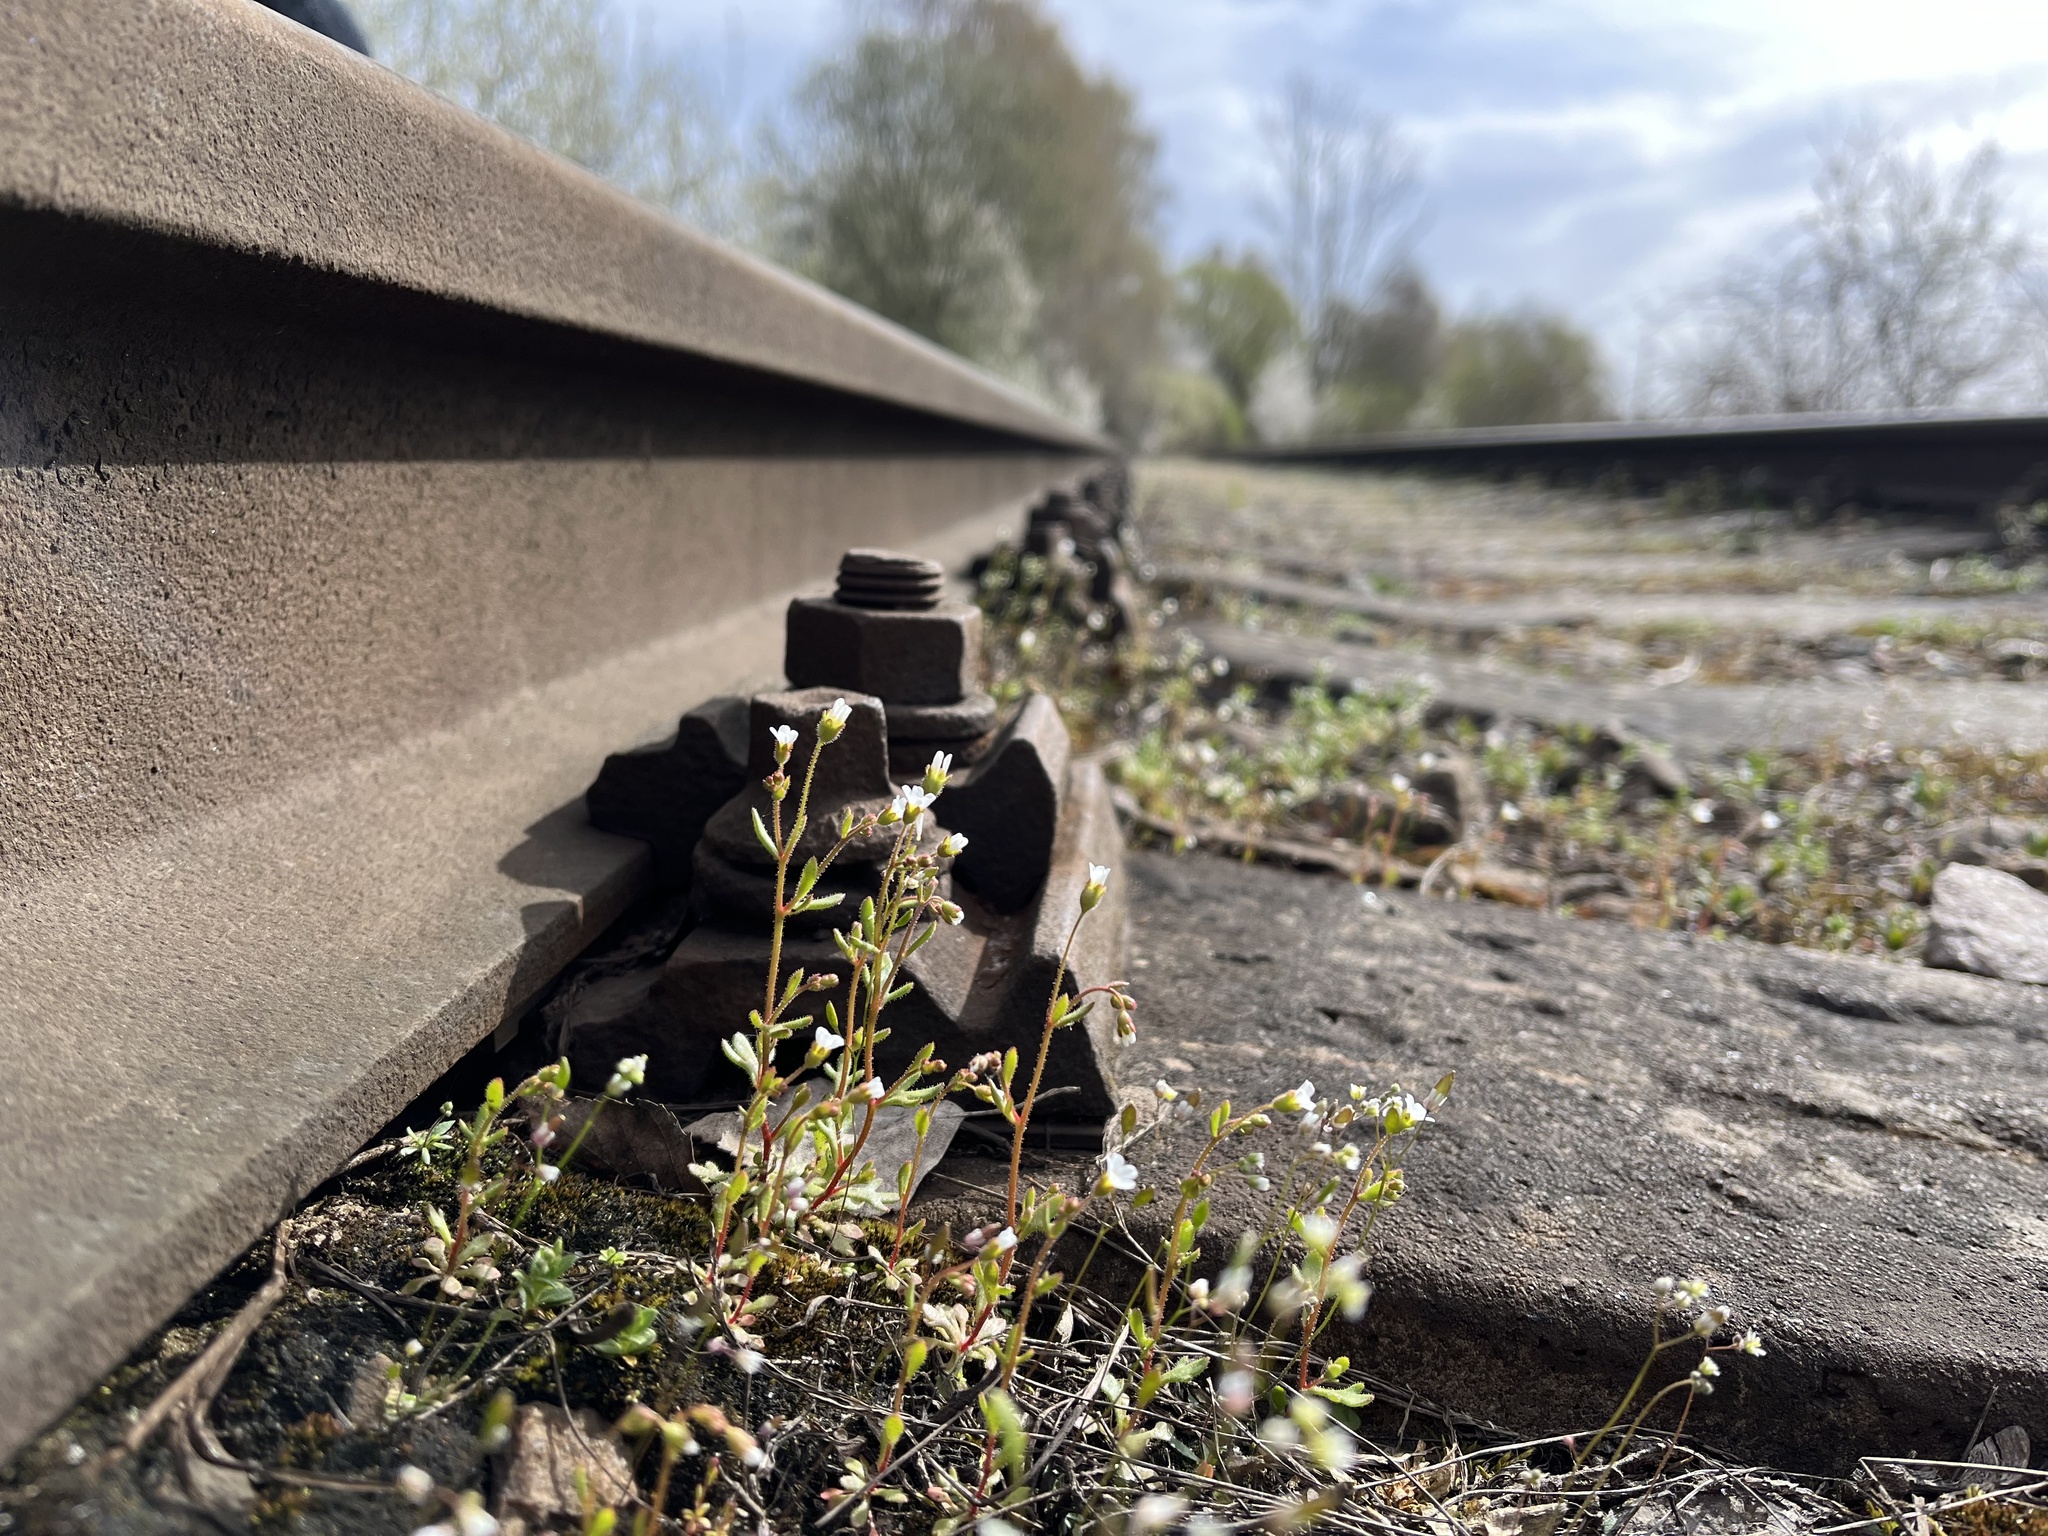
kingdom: Plantae
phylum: Tracheophyta
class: Magnoliopsida
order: Saxifragales
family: Saxifragaceae
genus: Saxifraga
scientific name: Saxifraga tridactylites
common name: Rue-leaved saxifrage
